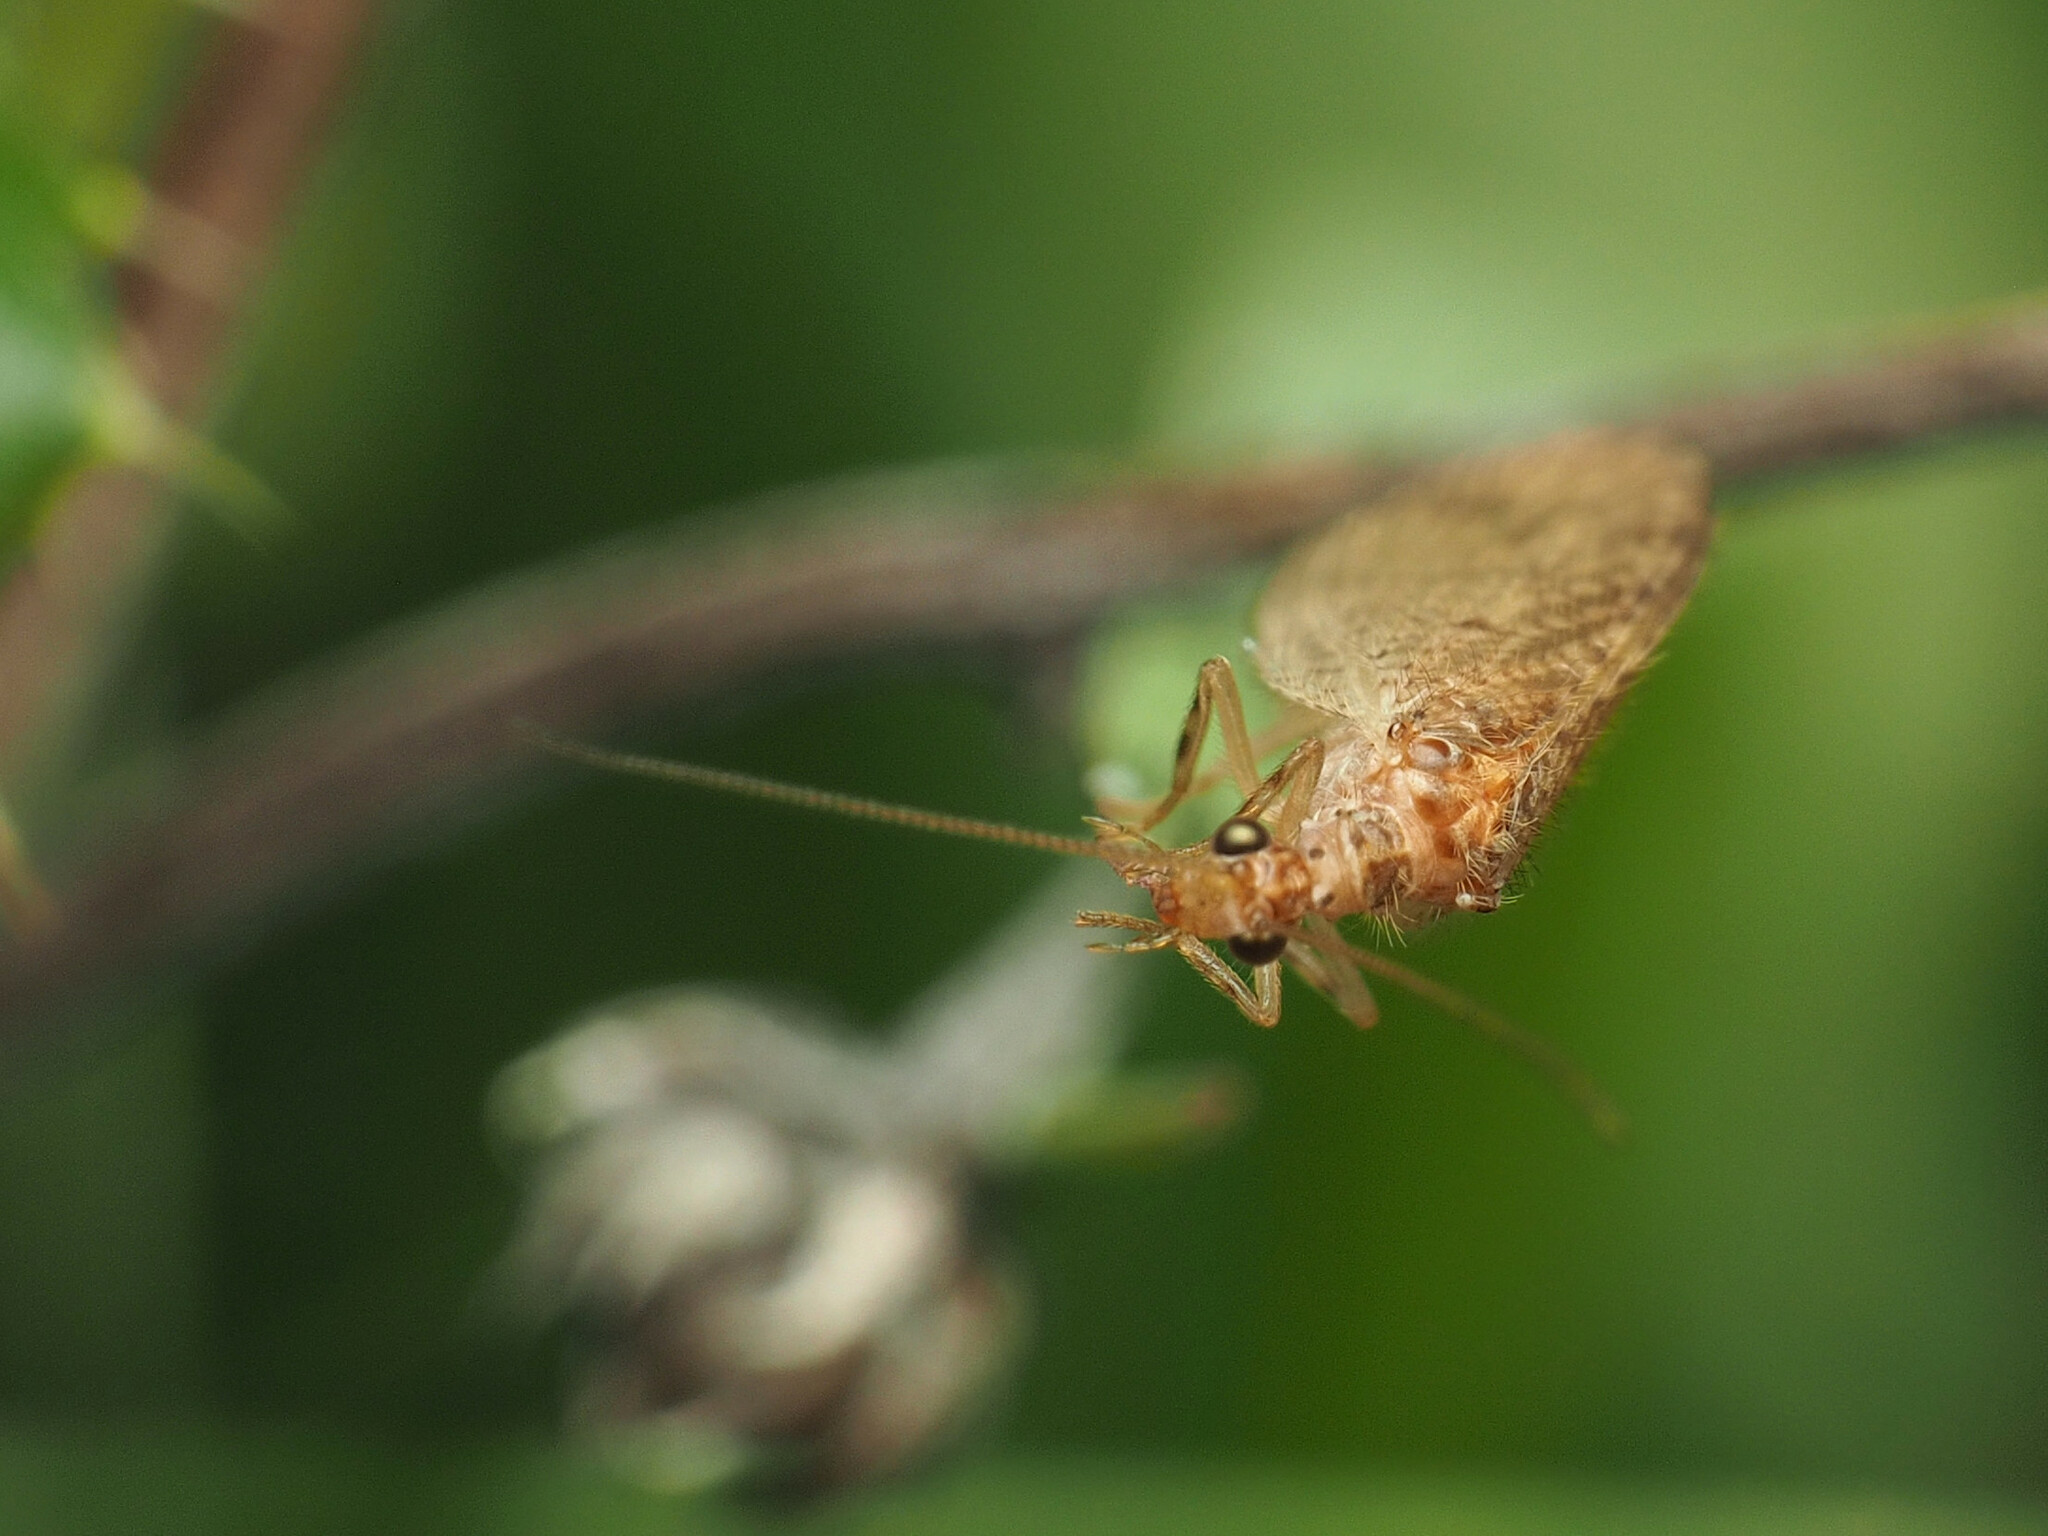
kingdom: Animalia
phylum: Arthropoda
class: Insecta
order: Neuroptera
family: Hemerobiidae
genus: Micromus
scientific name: Micromus posticus
